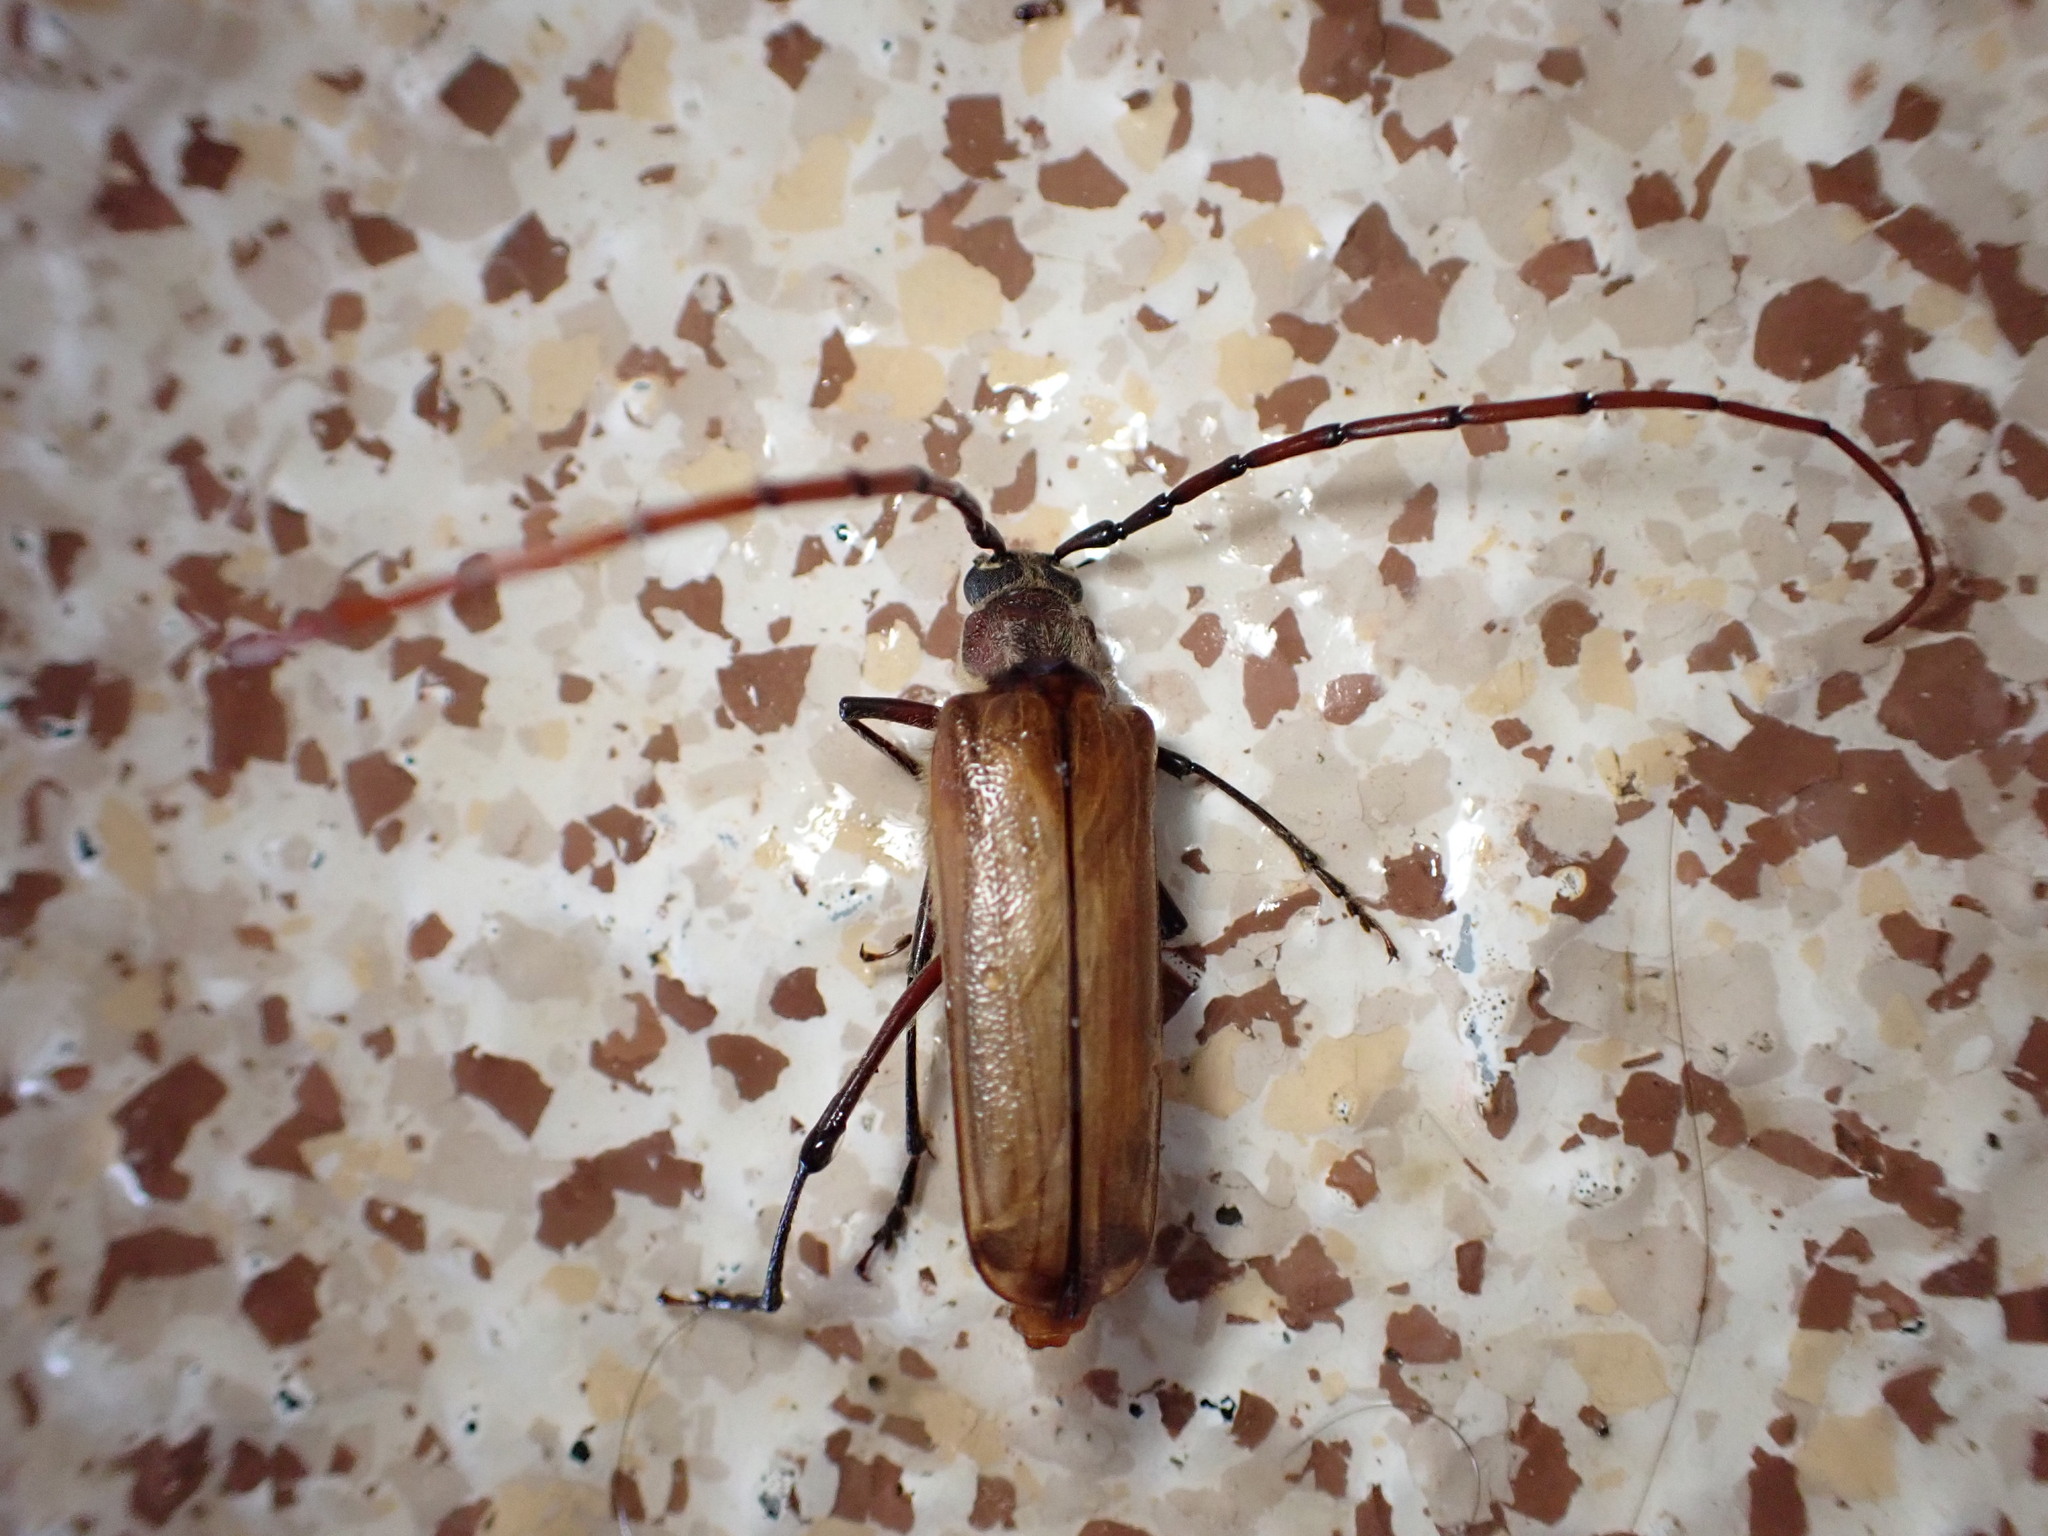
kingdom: Animalia
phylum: Arthropoda
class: Insecta
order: Coleoptera
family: Cerambycidae
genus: Ochrocydus
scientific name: Ochrocydus huttoni
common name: Kanuka longhorn
